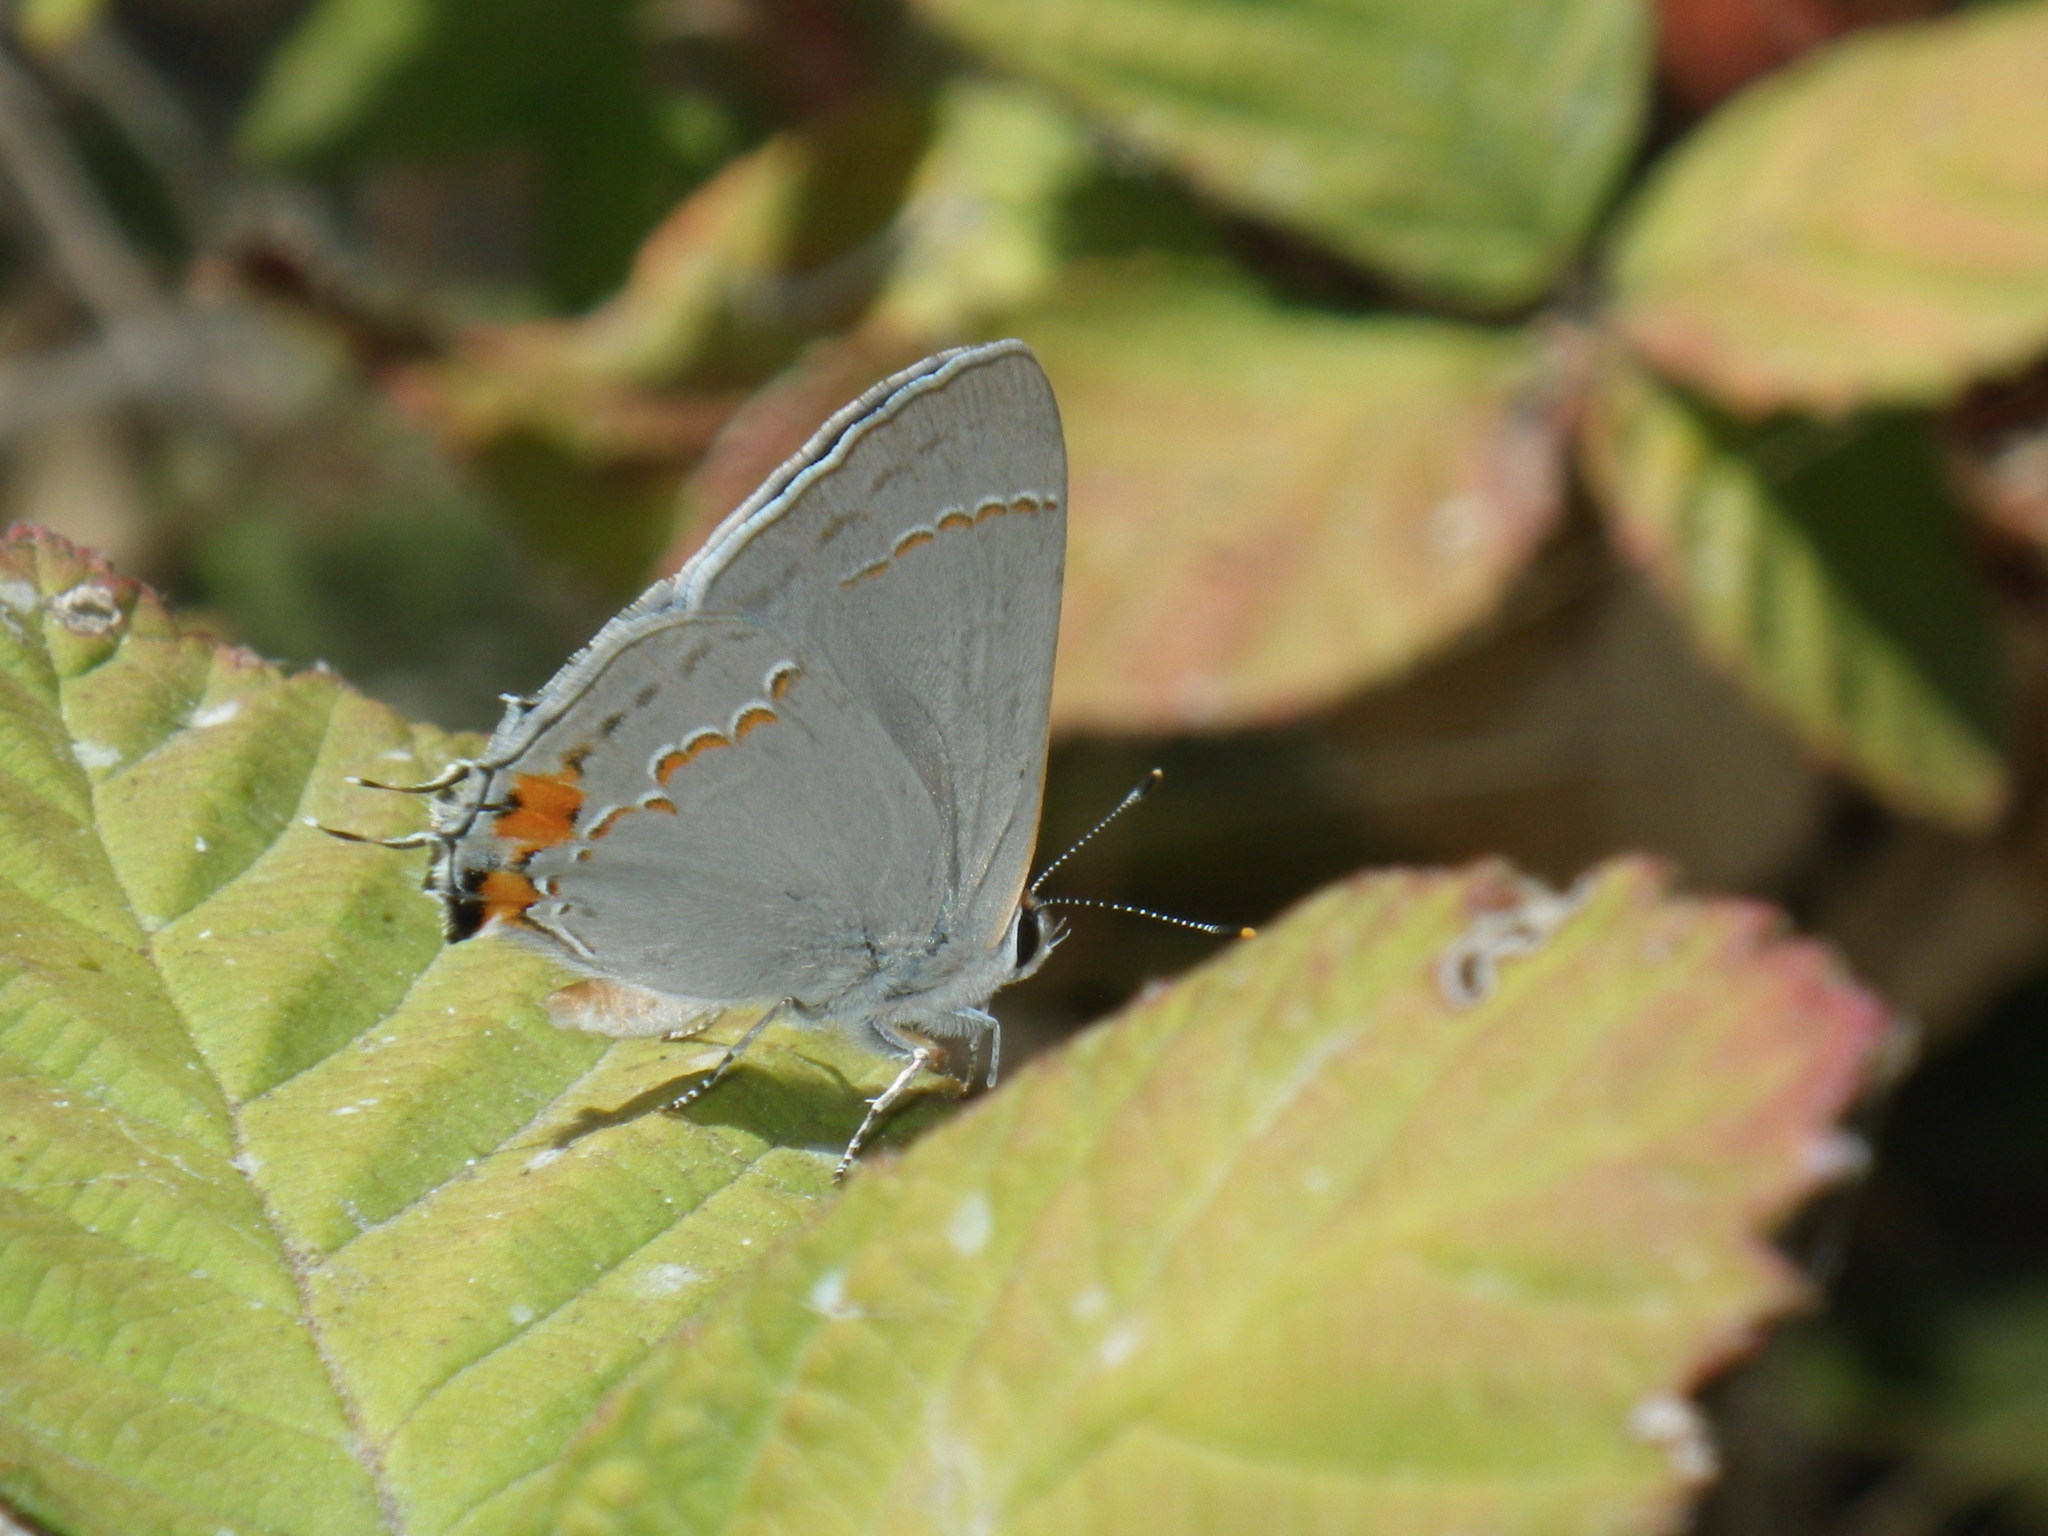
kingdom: Animalia
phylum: Arthropoda
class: Insecta
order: Lepidoptera
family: Lycaenidae
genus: Strymon
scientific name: Strymon melinus
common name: Gray hairstreak
